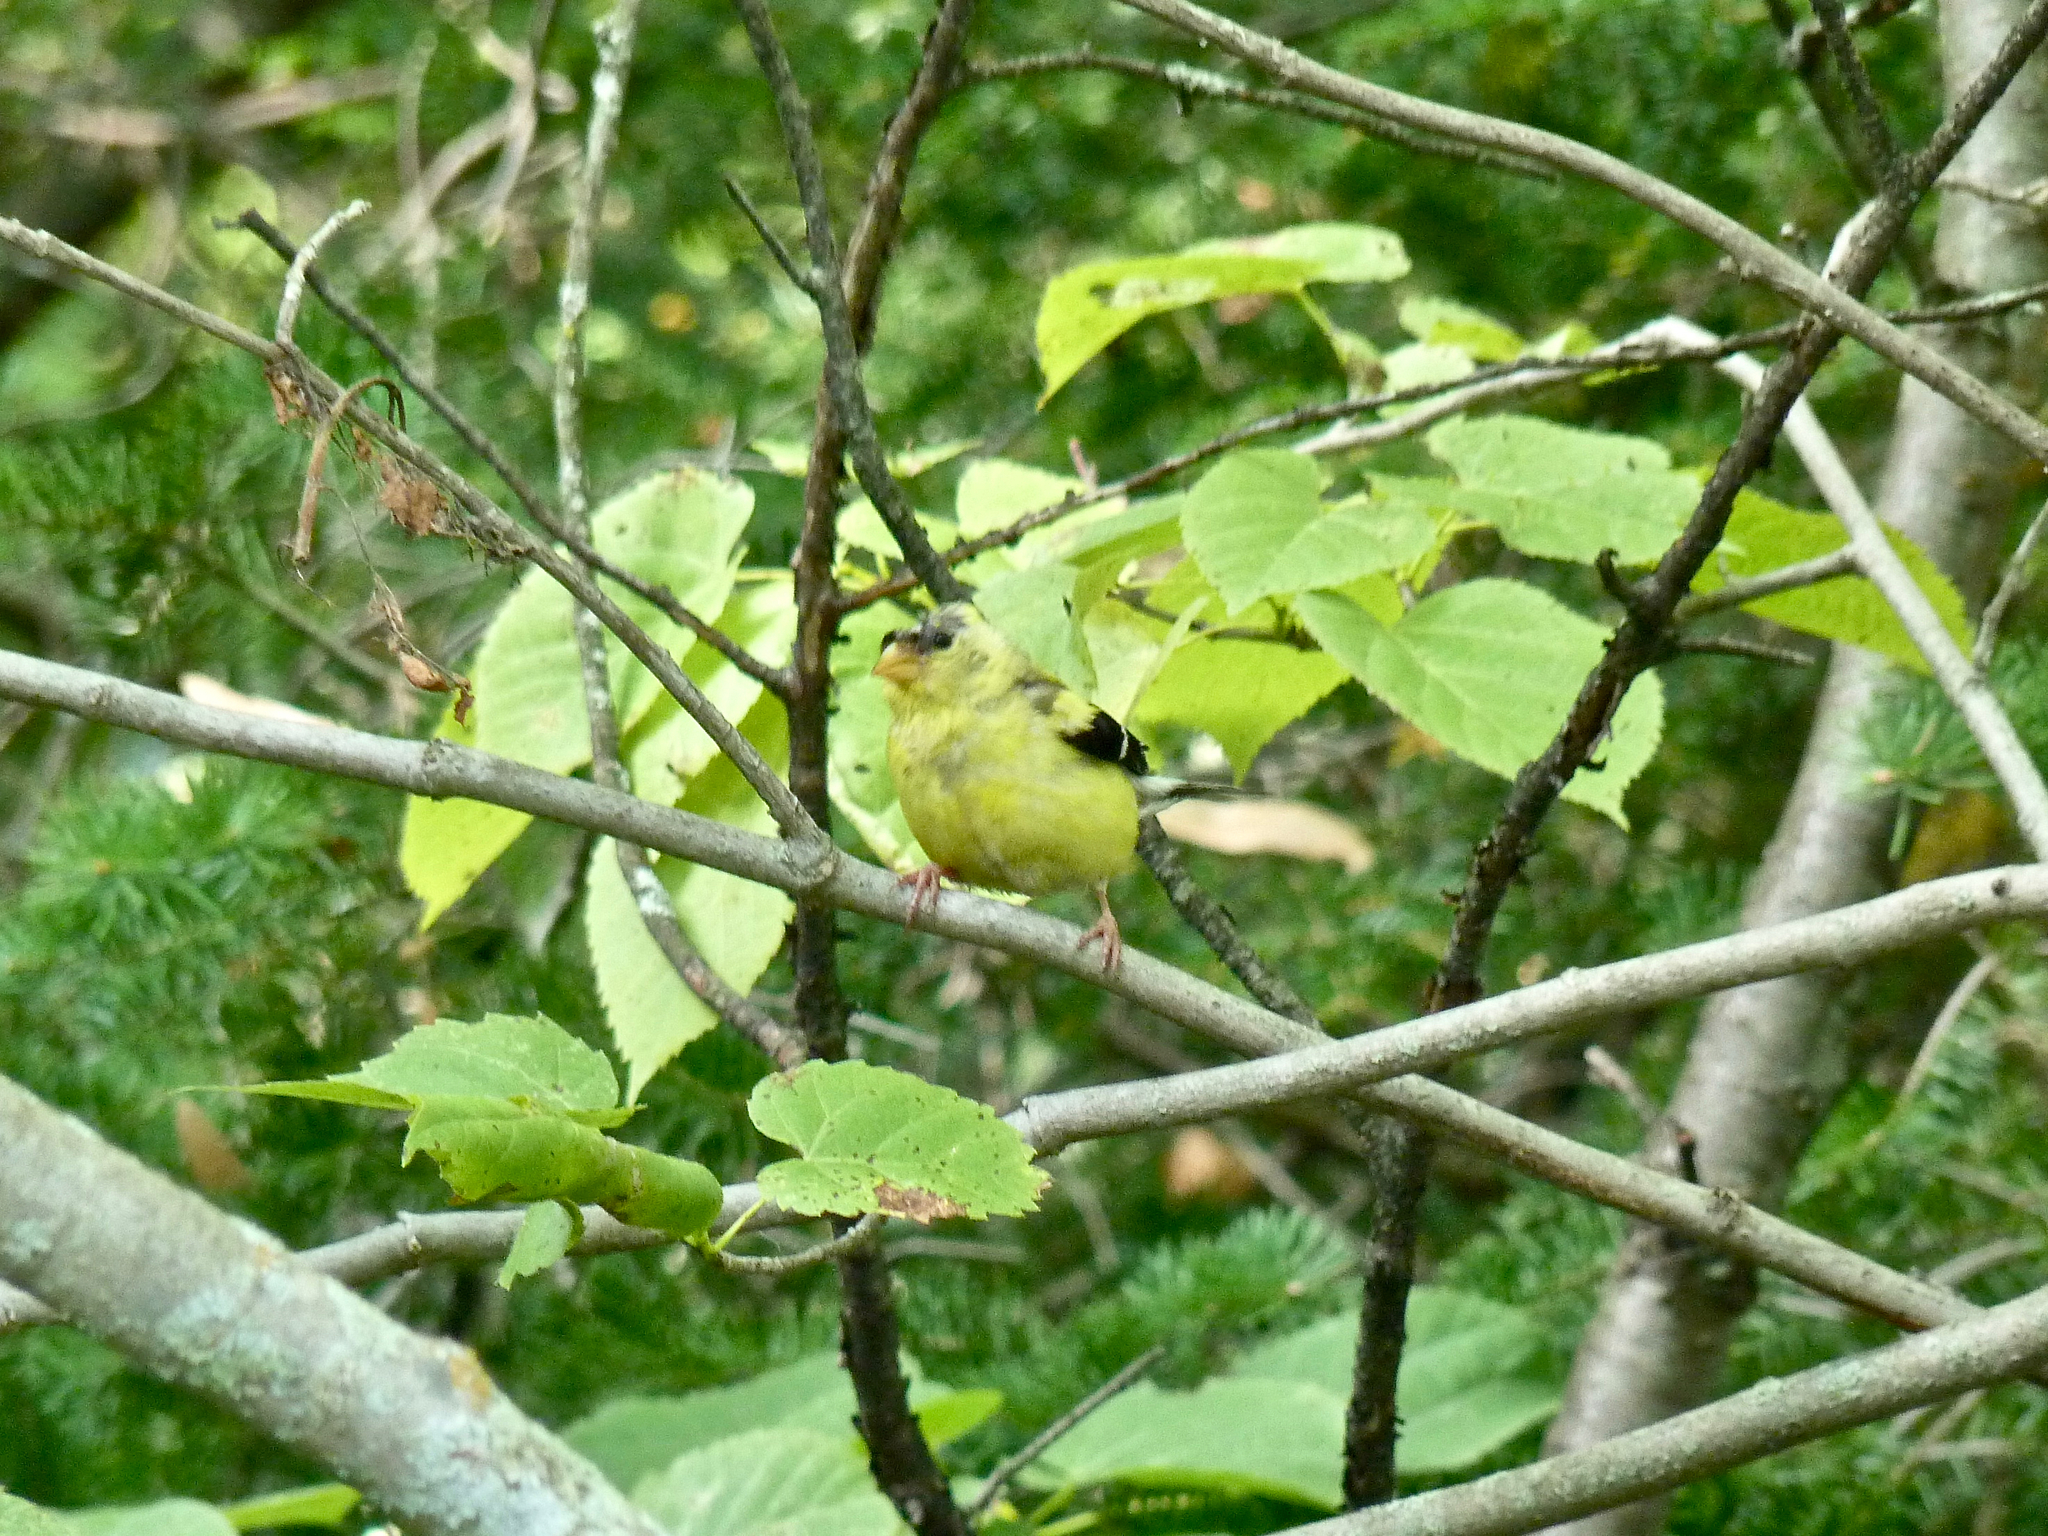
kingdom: Animalia
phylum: Chordata
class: Aves
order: Passeriformes
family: Fringillidae
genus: Spinus
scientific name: Spinus tristis
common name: American goldfinch
